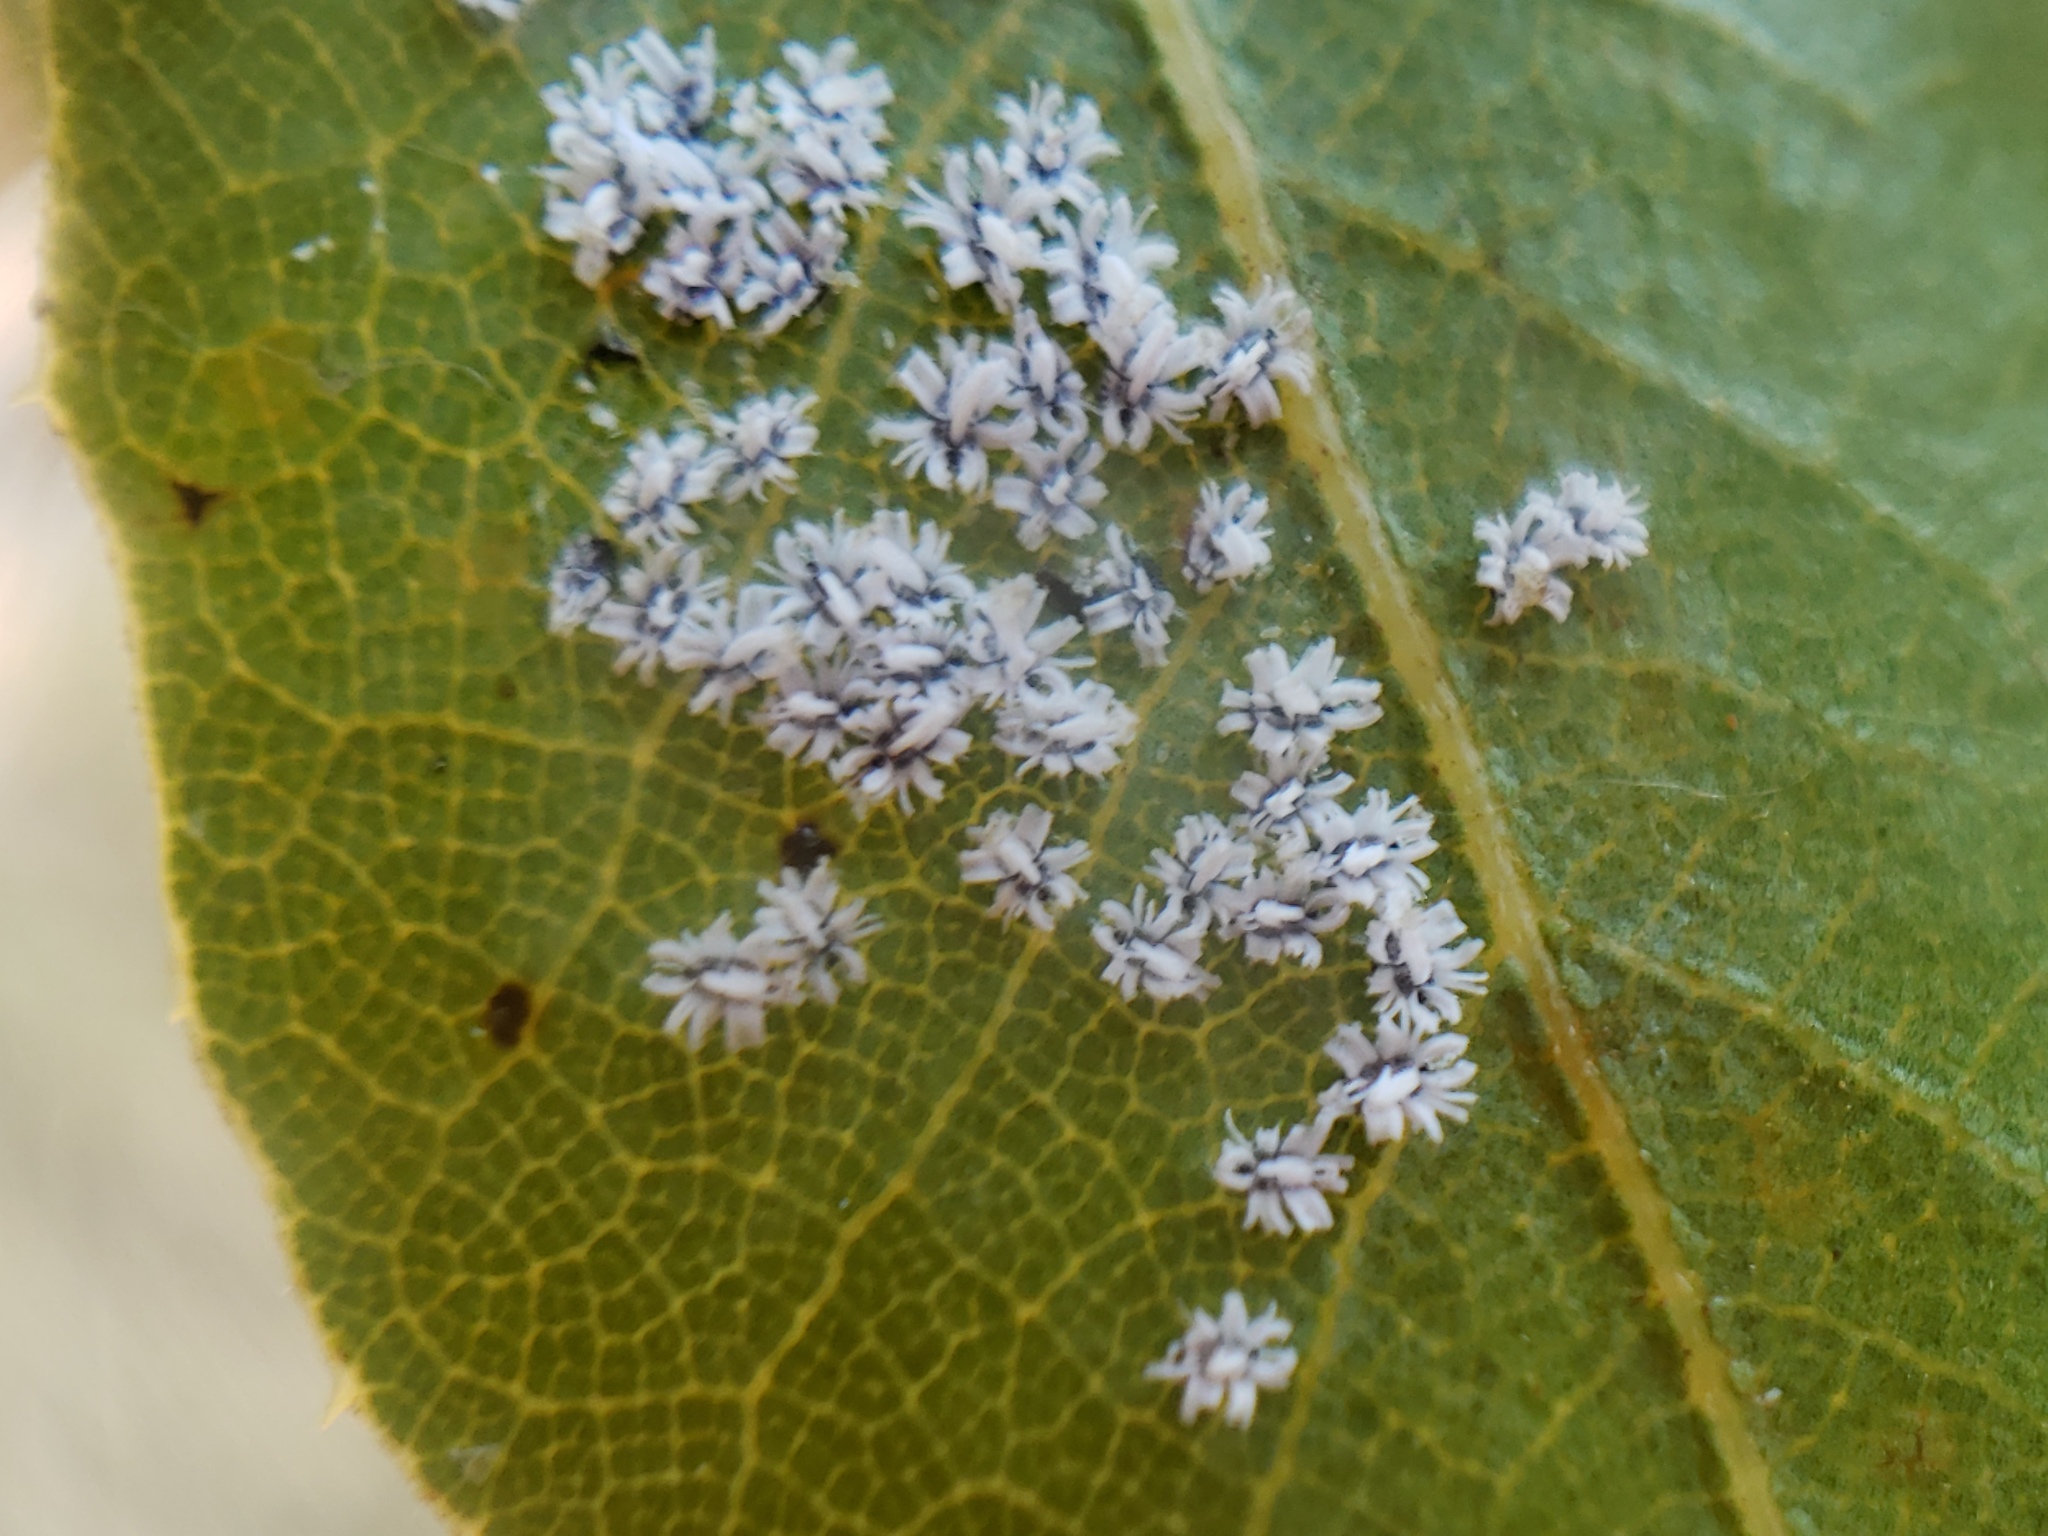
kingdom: Animalia
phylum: Arthropoda
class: Insecta
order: Hemiptera
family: Aleyrodidae
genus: Aleuroplatus
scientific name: Aleuroplatus coronata
